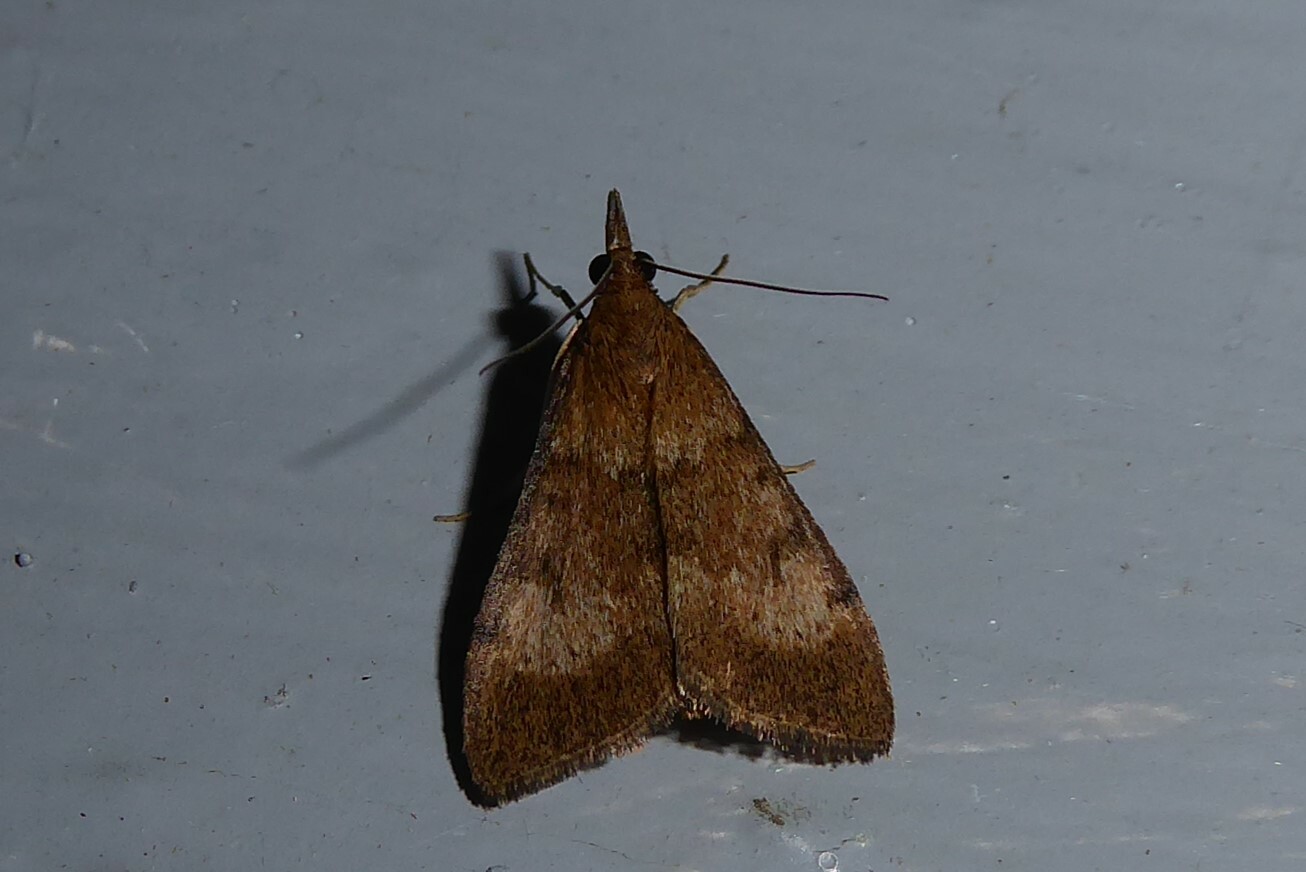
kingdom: Animalia
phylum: Arthropoda
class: Insecta
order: Lepidoptera
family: Crambidae
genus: Uresiphita
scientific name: Uresiphita
